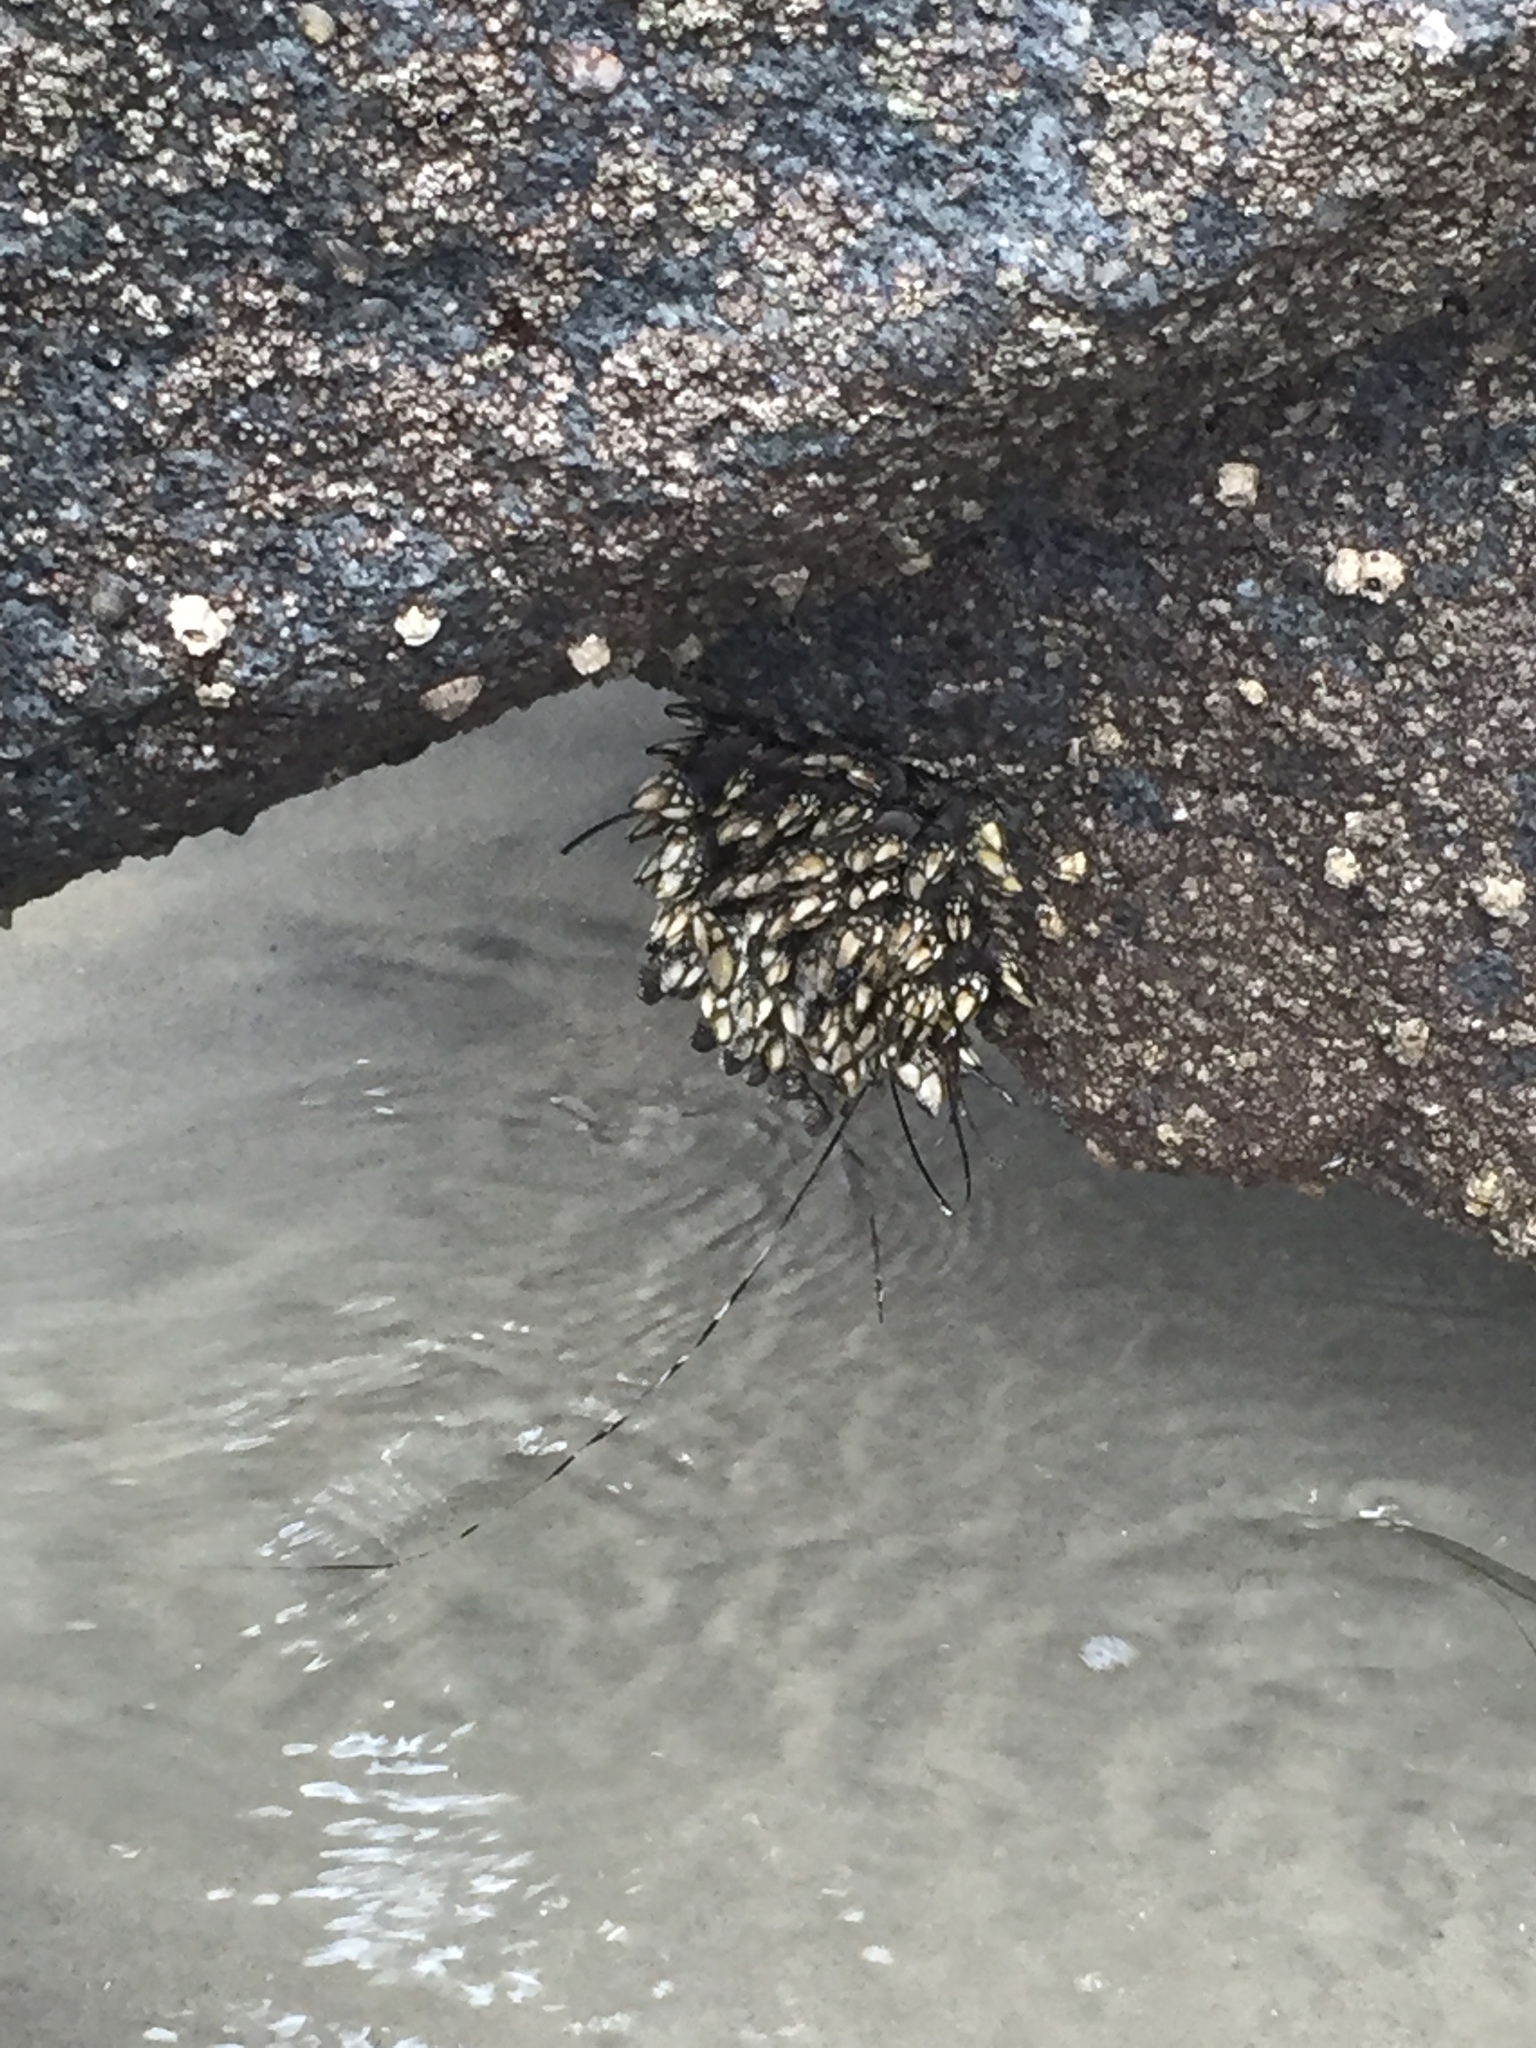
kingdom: Animalia
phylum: Arthropoda
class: Maxillopoda
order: Pedunculata
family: Pollicipedidae
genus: Pollicipes
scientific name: Pollicipes polymerus
